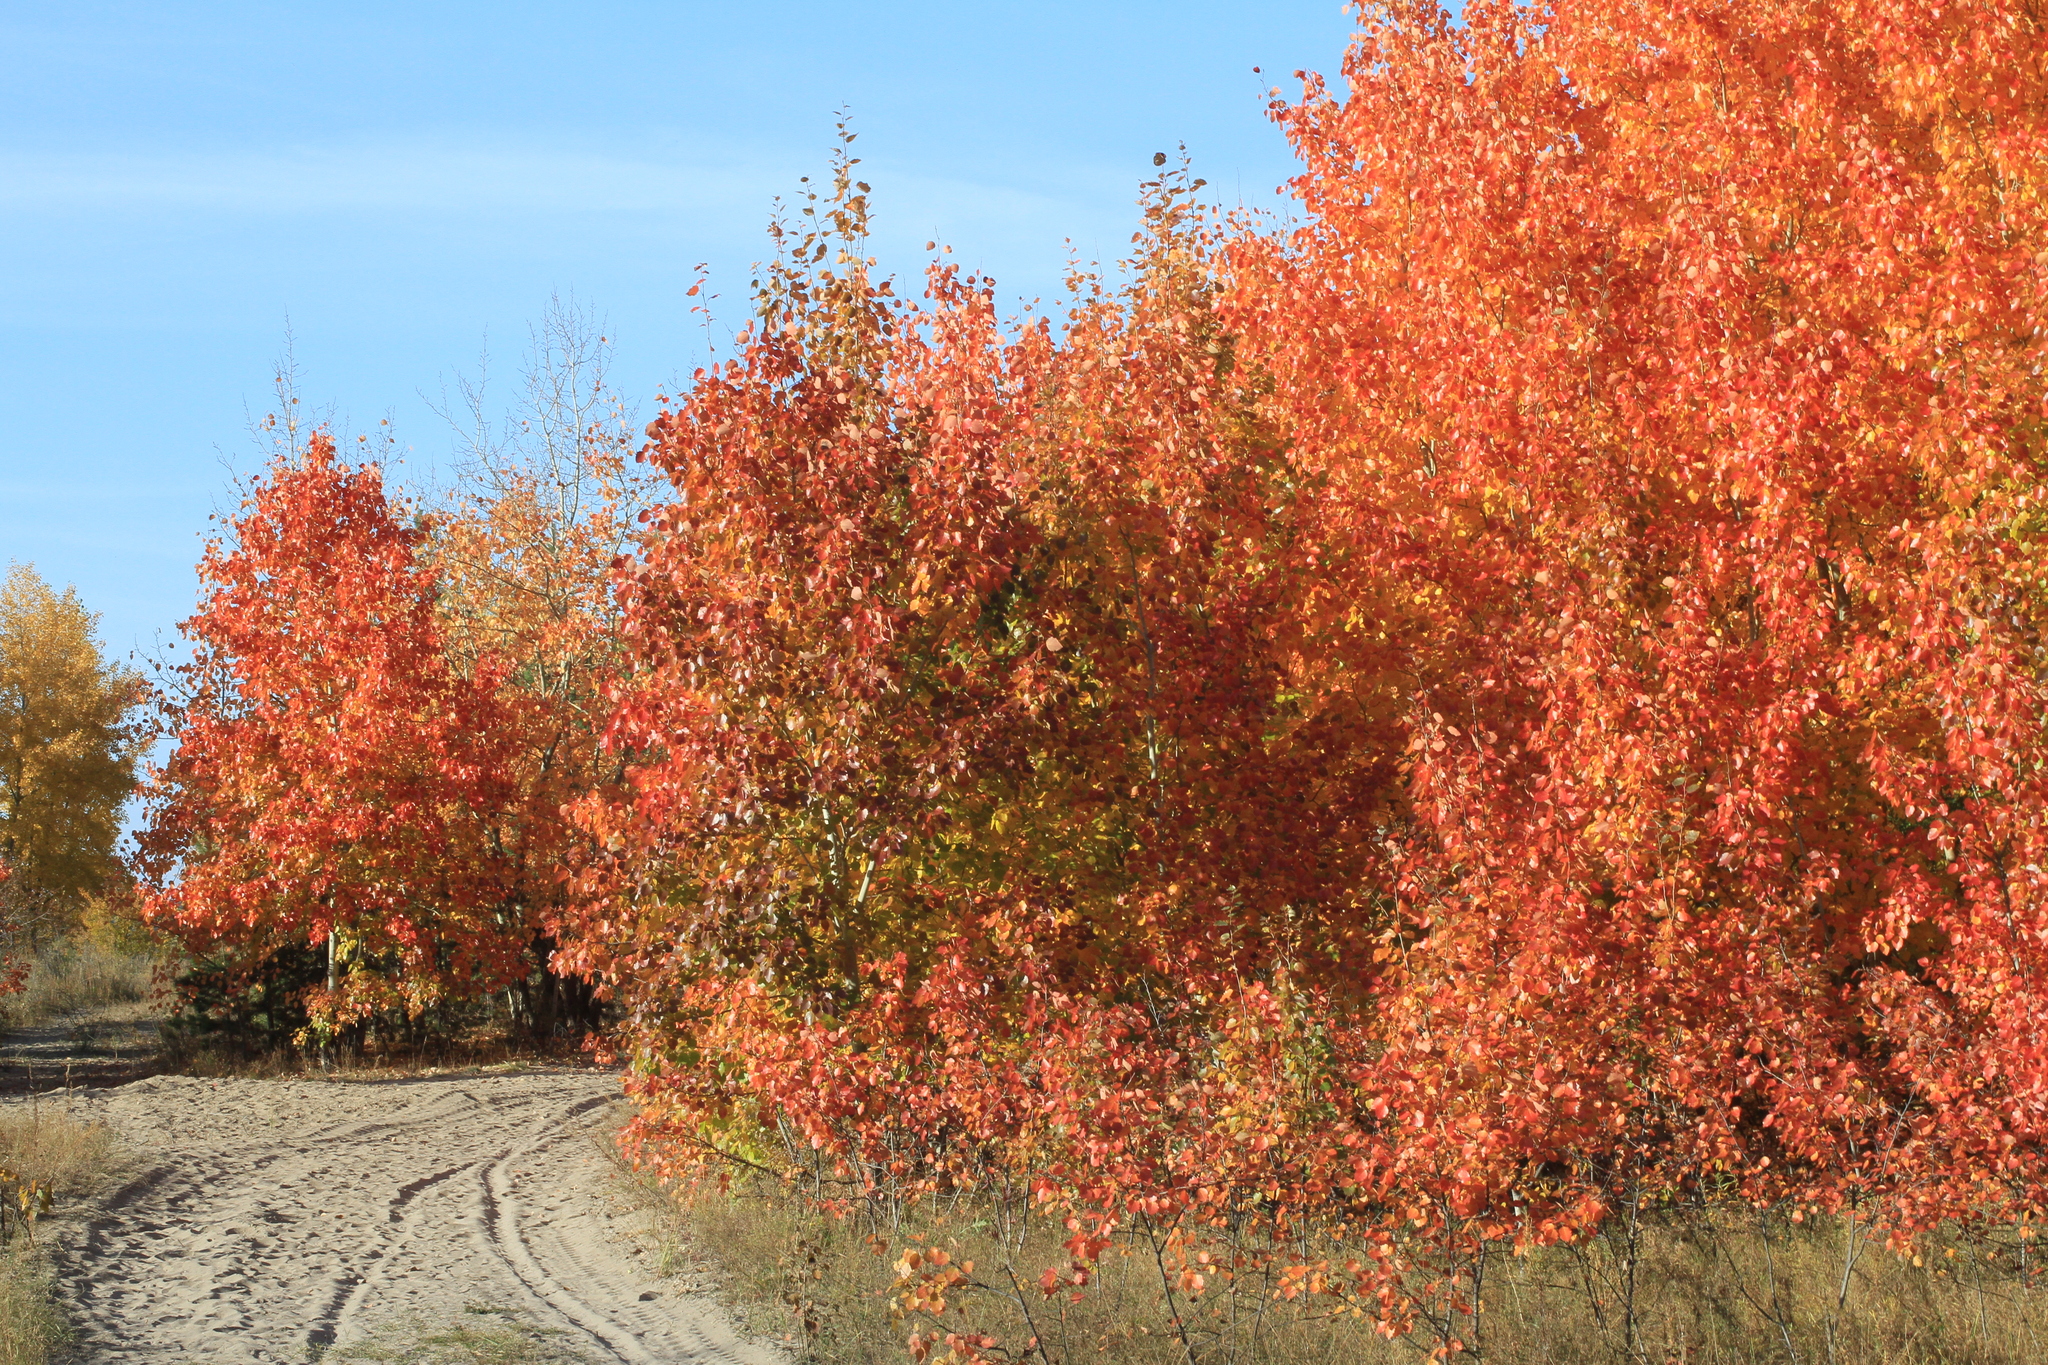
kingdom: Plantae
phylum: Tracheophyta
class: Magnoliopsida
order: Malpighiales
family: Salicaceae
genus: Populus
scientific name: Populus tremula
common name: European aspen
